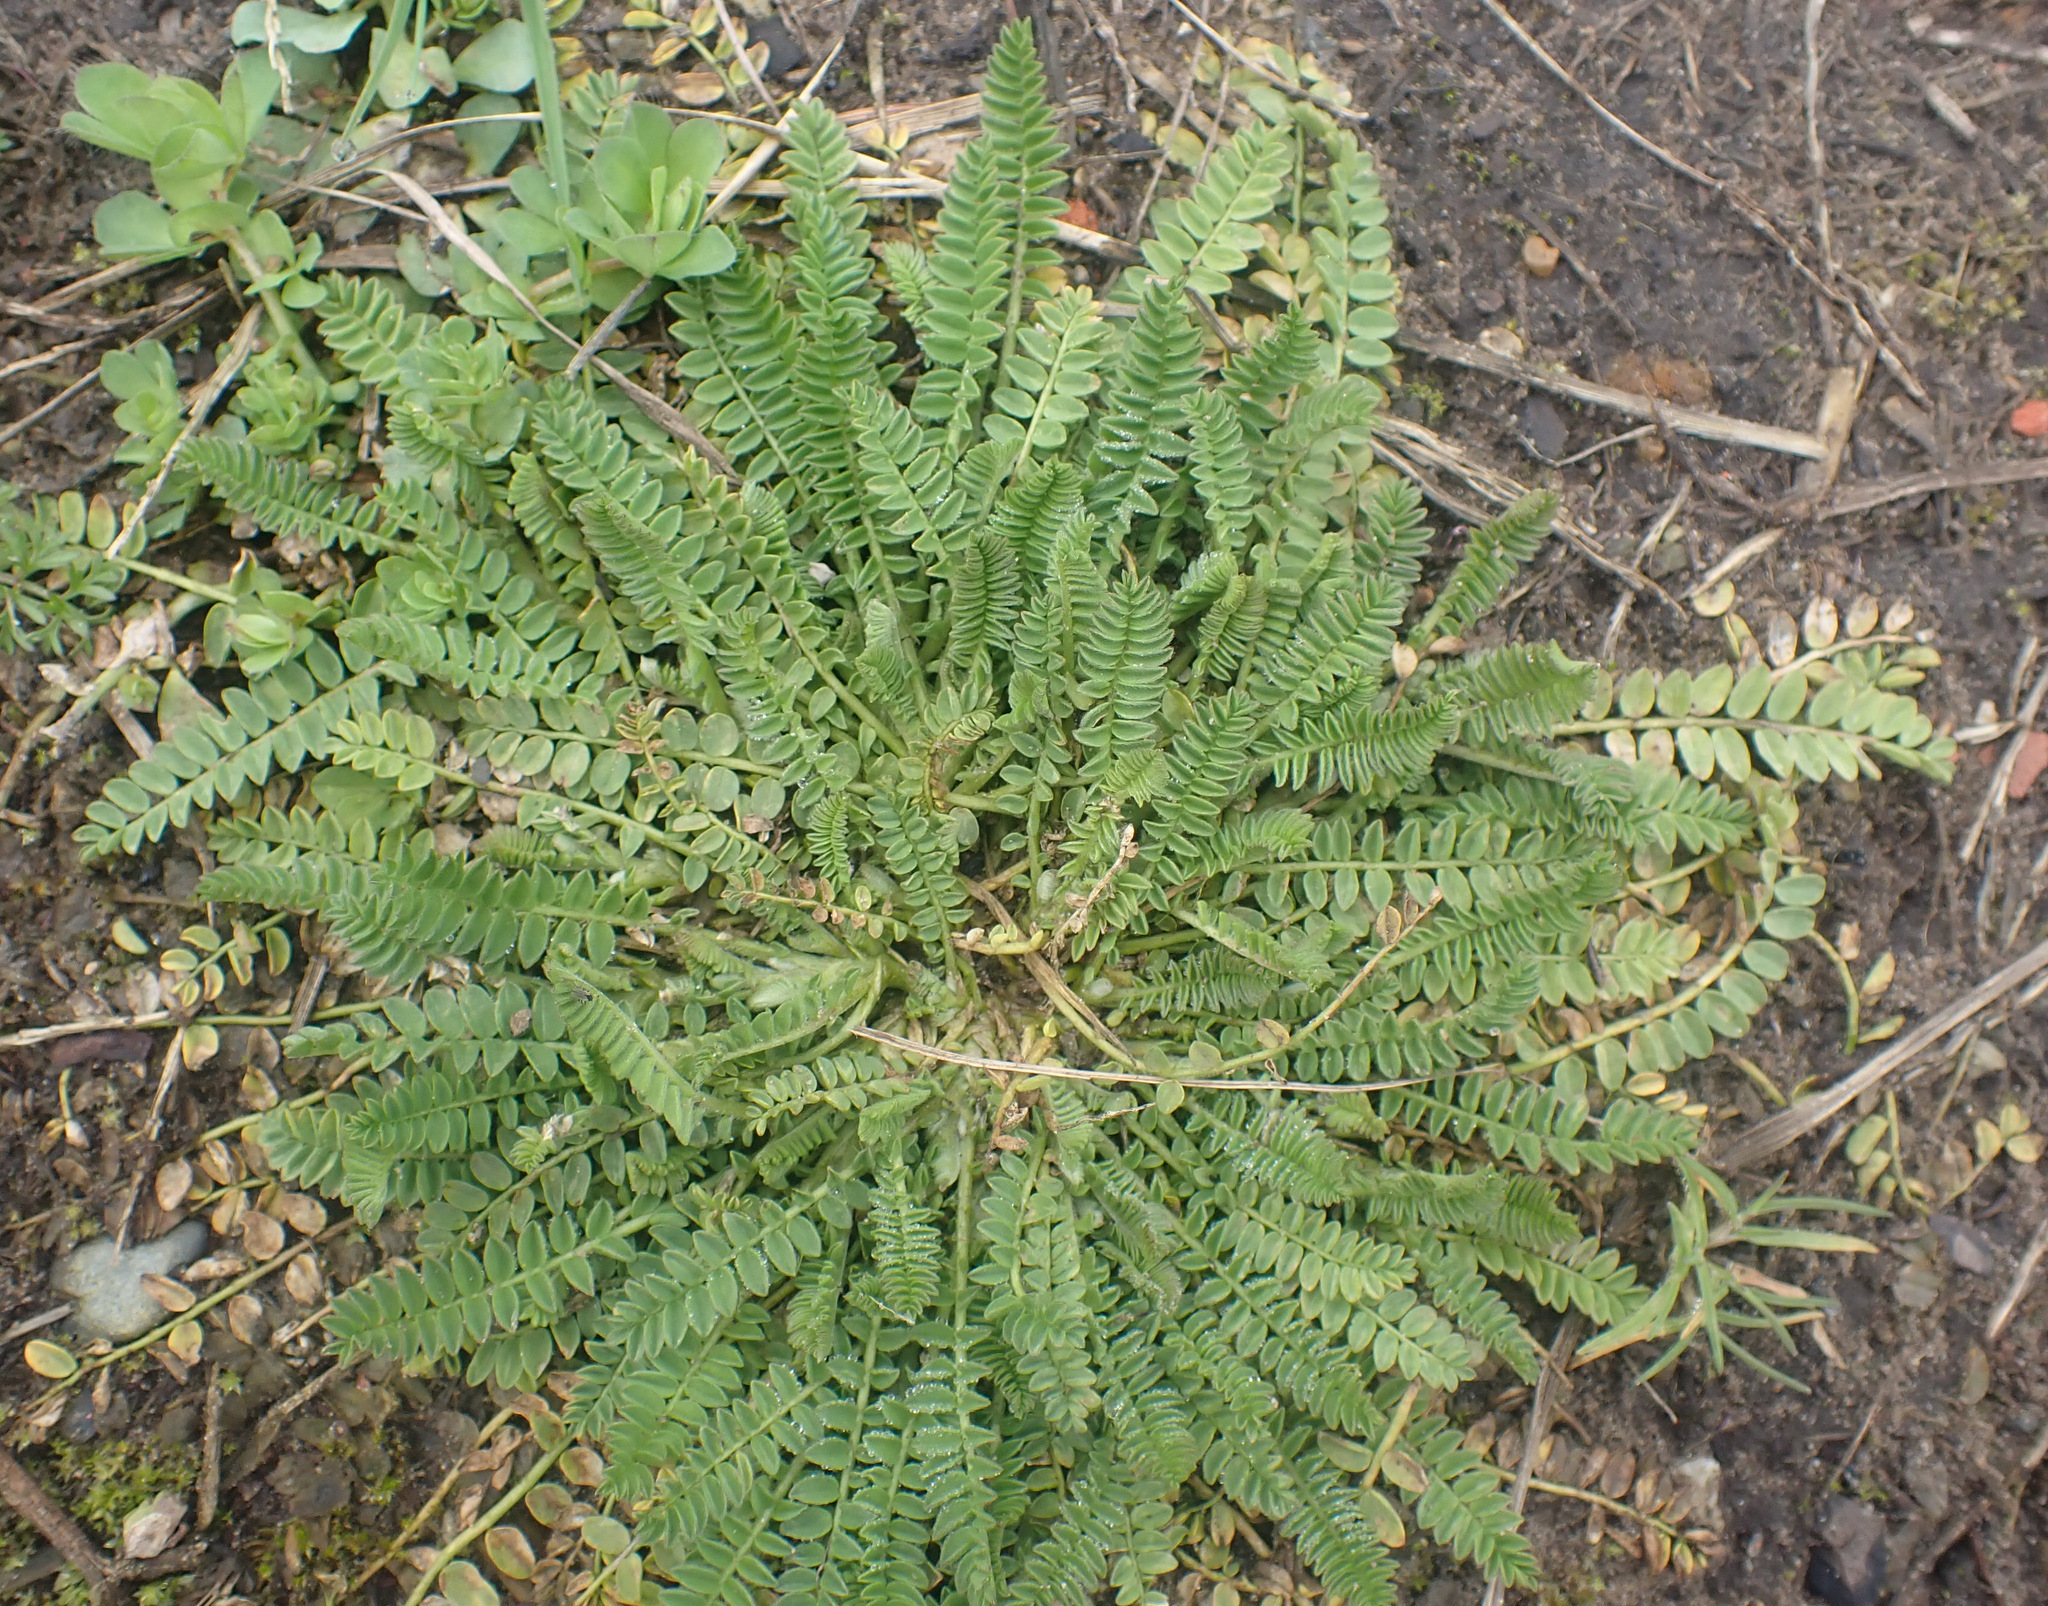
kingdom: Plantae
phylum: Tracheophyta
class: Magnoliopsida
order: Fabales
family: Fabaceae
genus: Ornithopus
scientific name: Ornithopus perpusillus
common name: Bird's-foot
